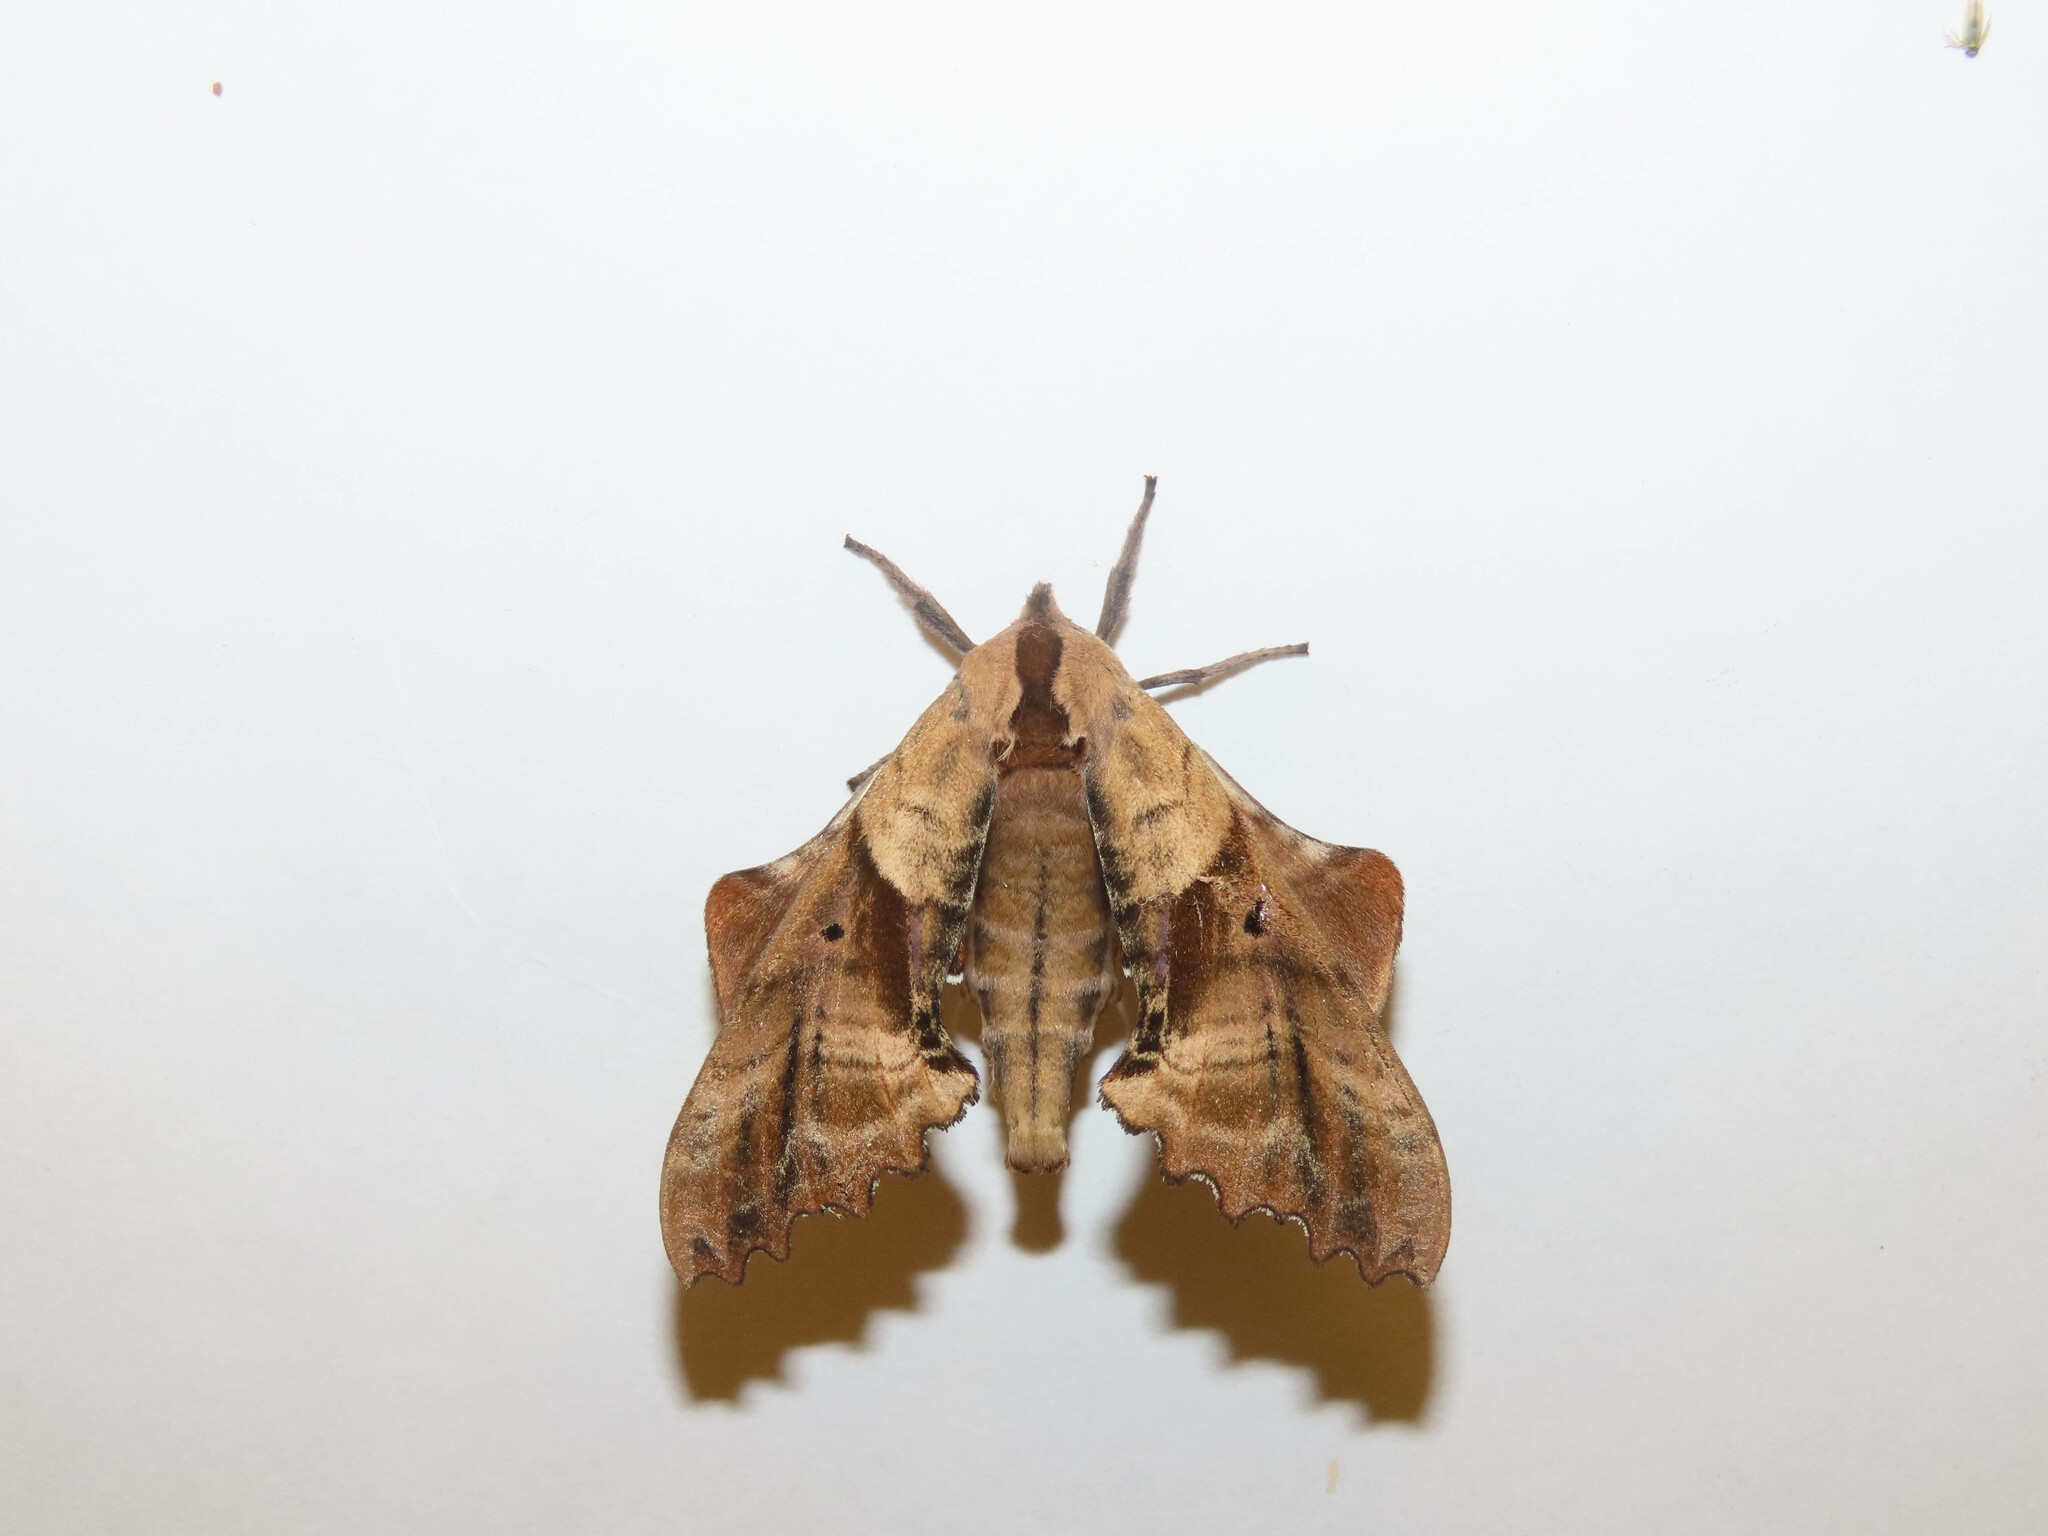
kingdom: Animalia
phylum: Arthropoda
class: Insecta
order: Lepidoptera
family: Sphingidae
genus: Paonias
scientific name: Paonias excaecata
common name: Blind-eyed sphinx
